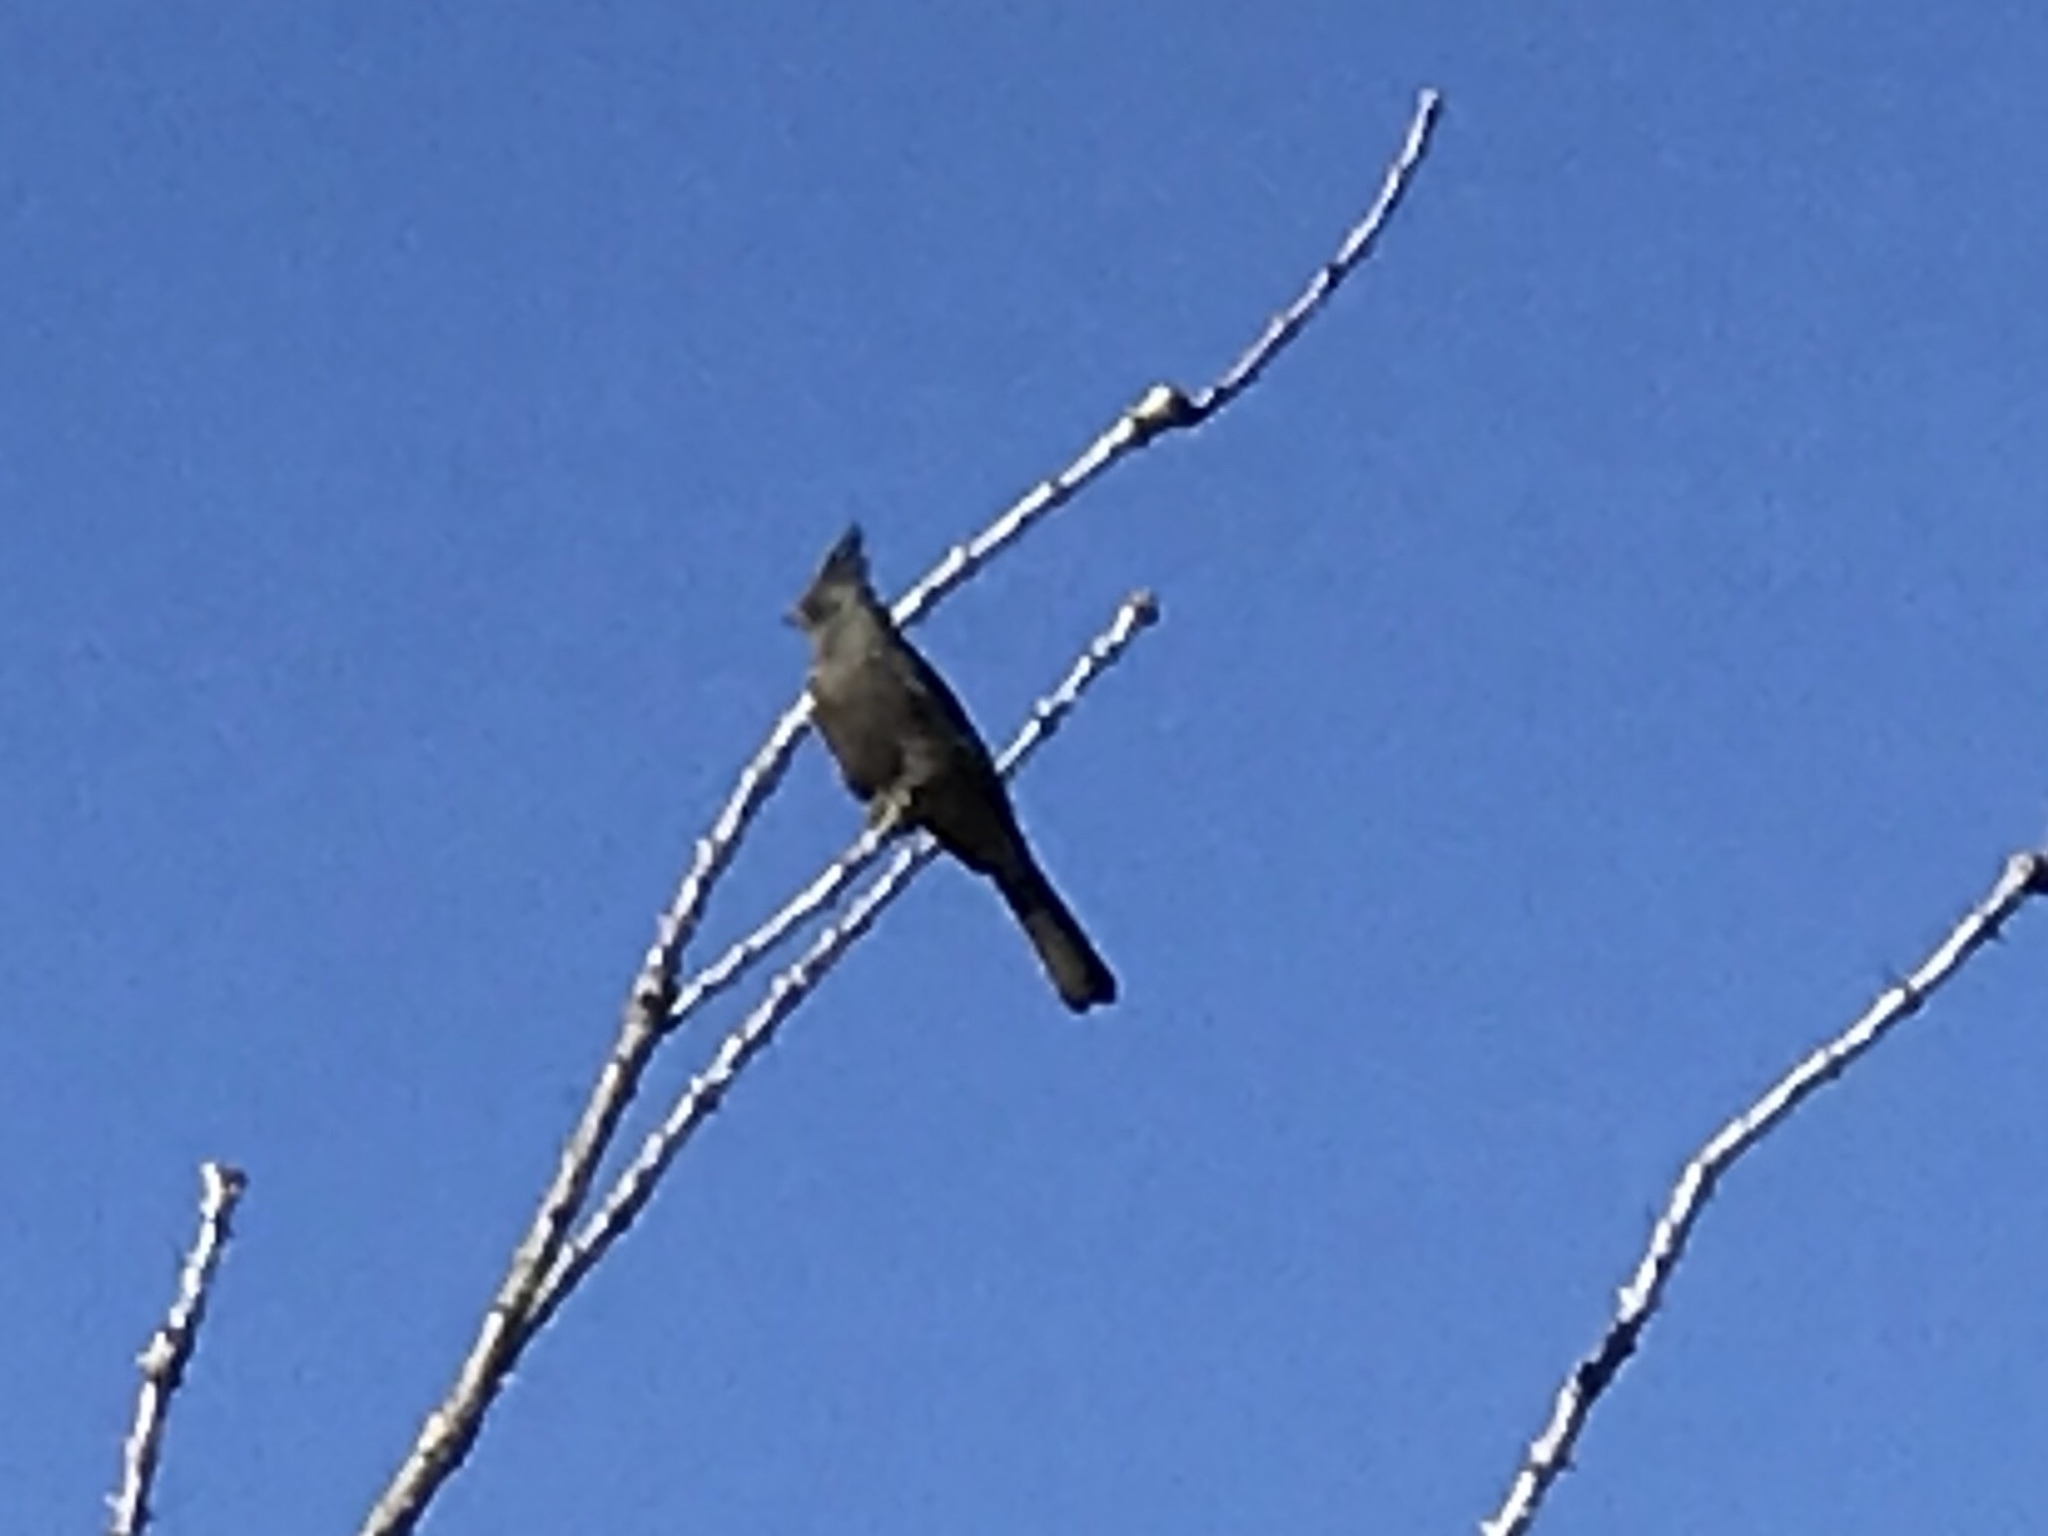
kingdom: Animalia
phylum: Chordata
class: Aves
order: Passeriformes
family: Ptilogonatidae
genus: Phainopepla
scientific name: Phainopepla nitens
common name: Phainopepla
